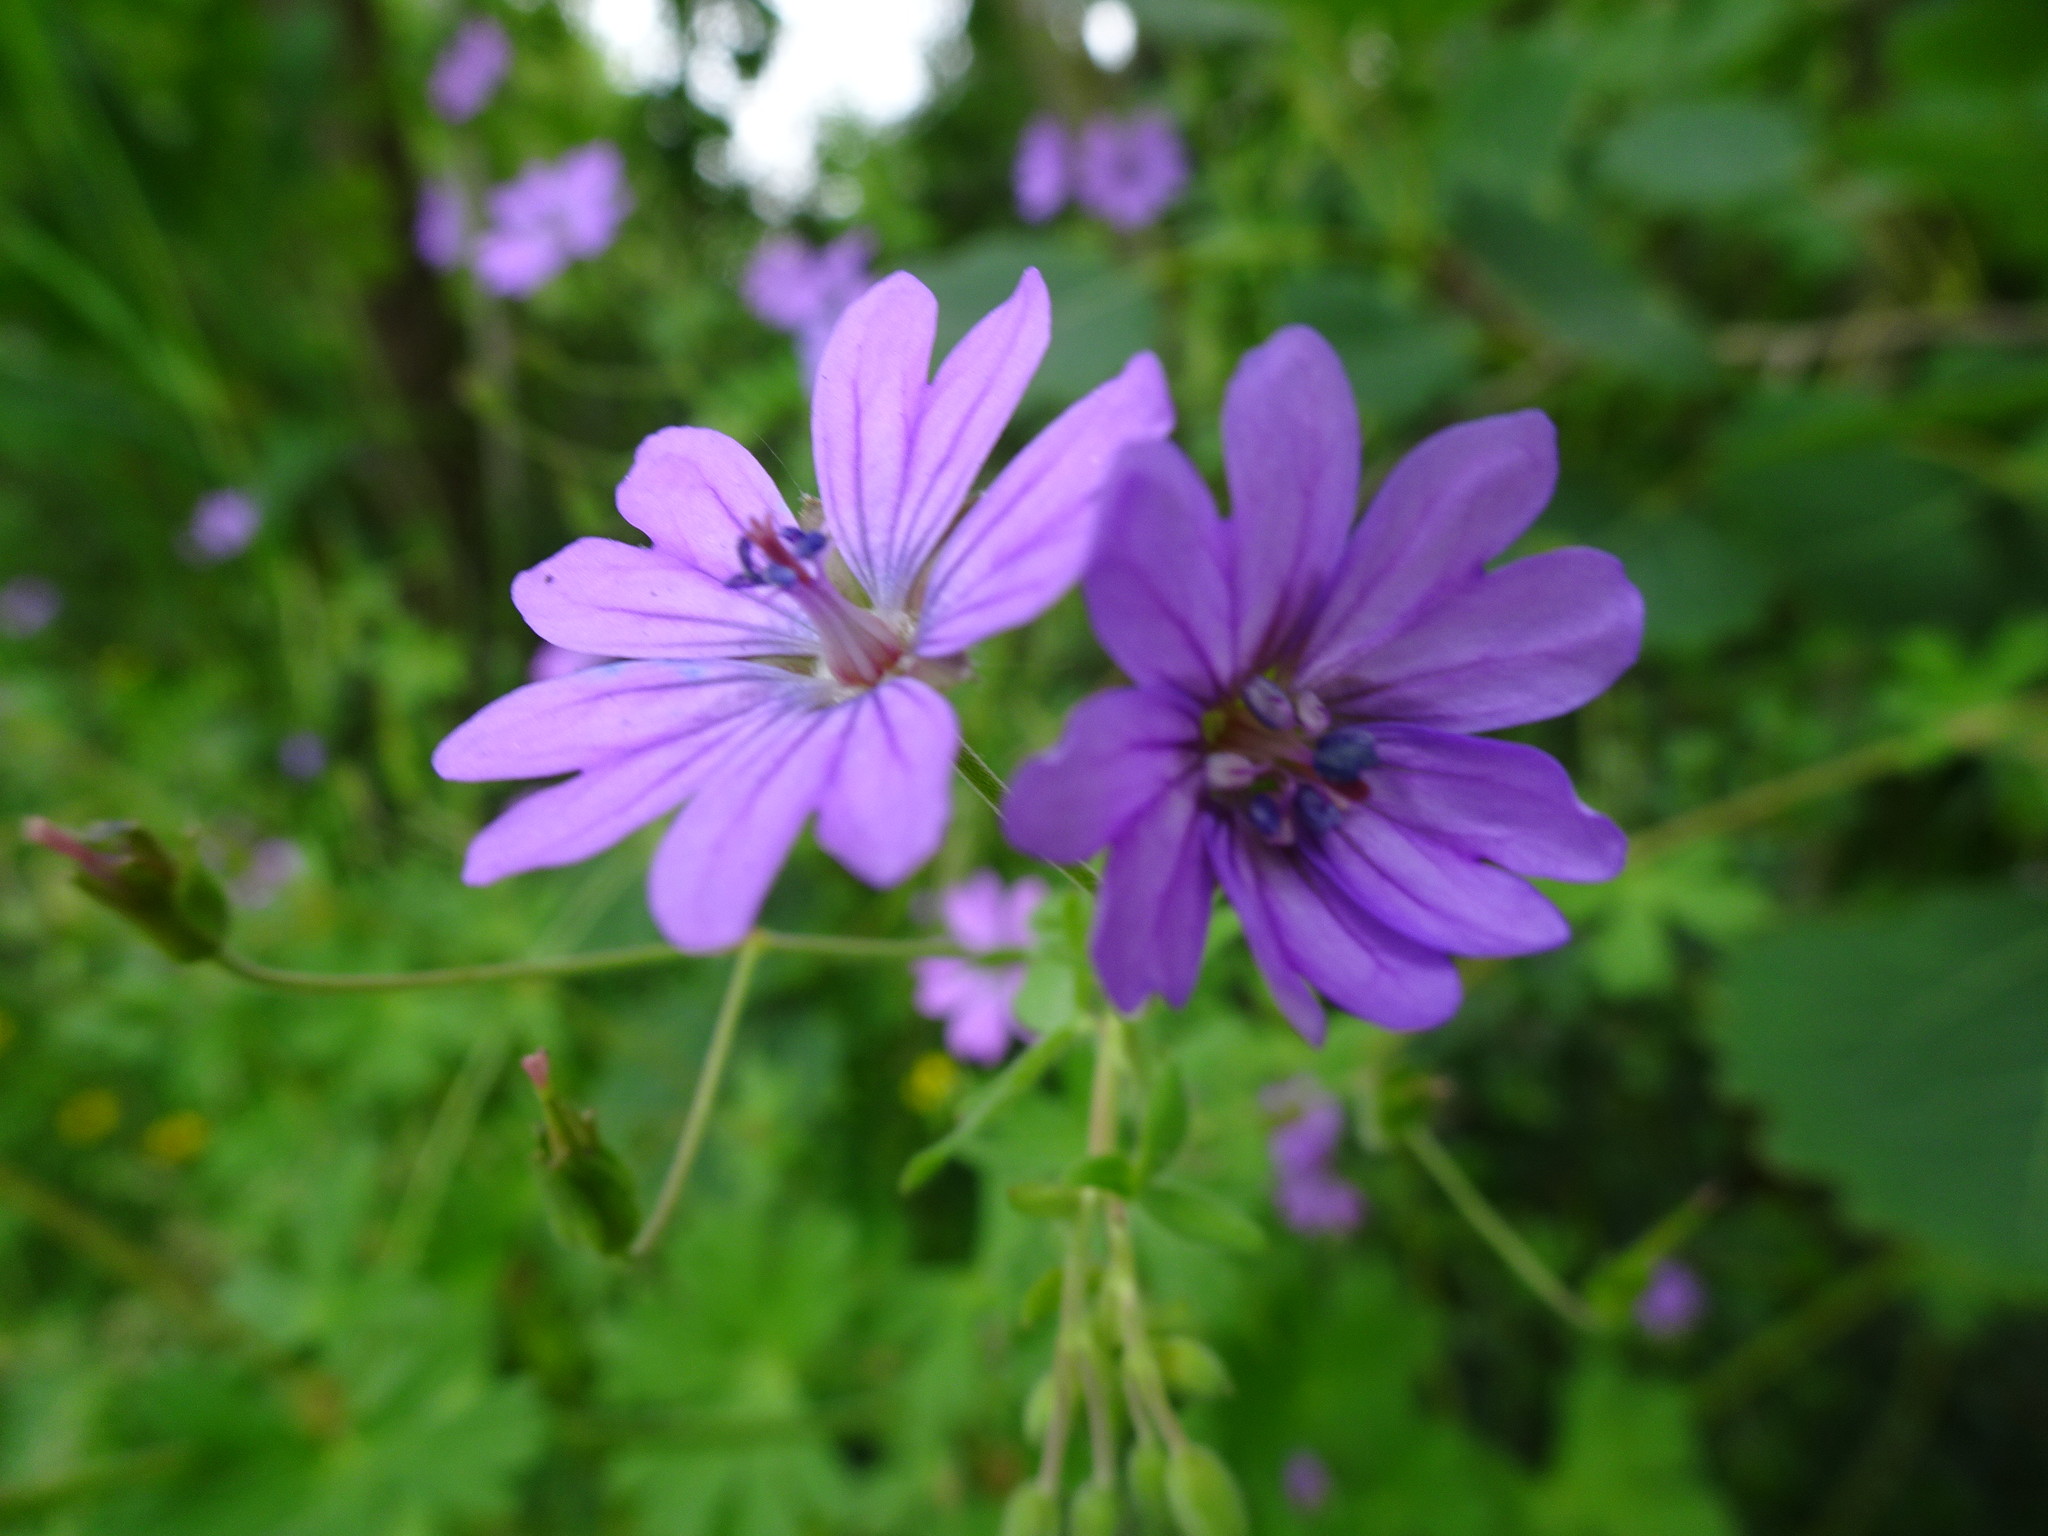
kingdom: Plantae
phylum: Tracheophyta
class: Magnoliopsida
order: Geraniales
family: Geraniaceae
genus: Geranium
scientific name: Geranium pyrenaicum
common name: Hedgerow crane's-bill
